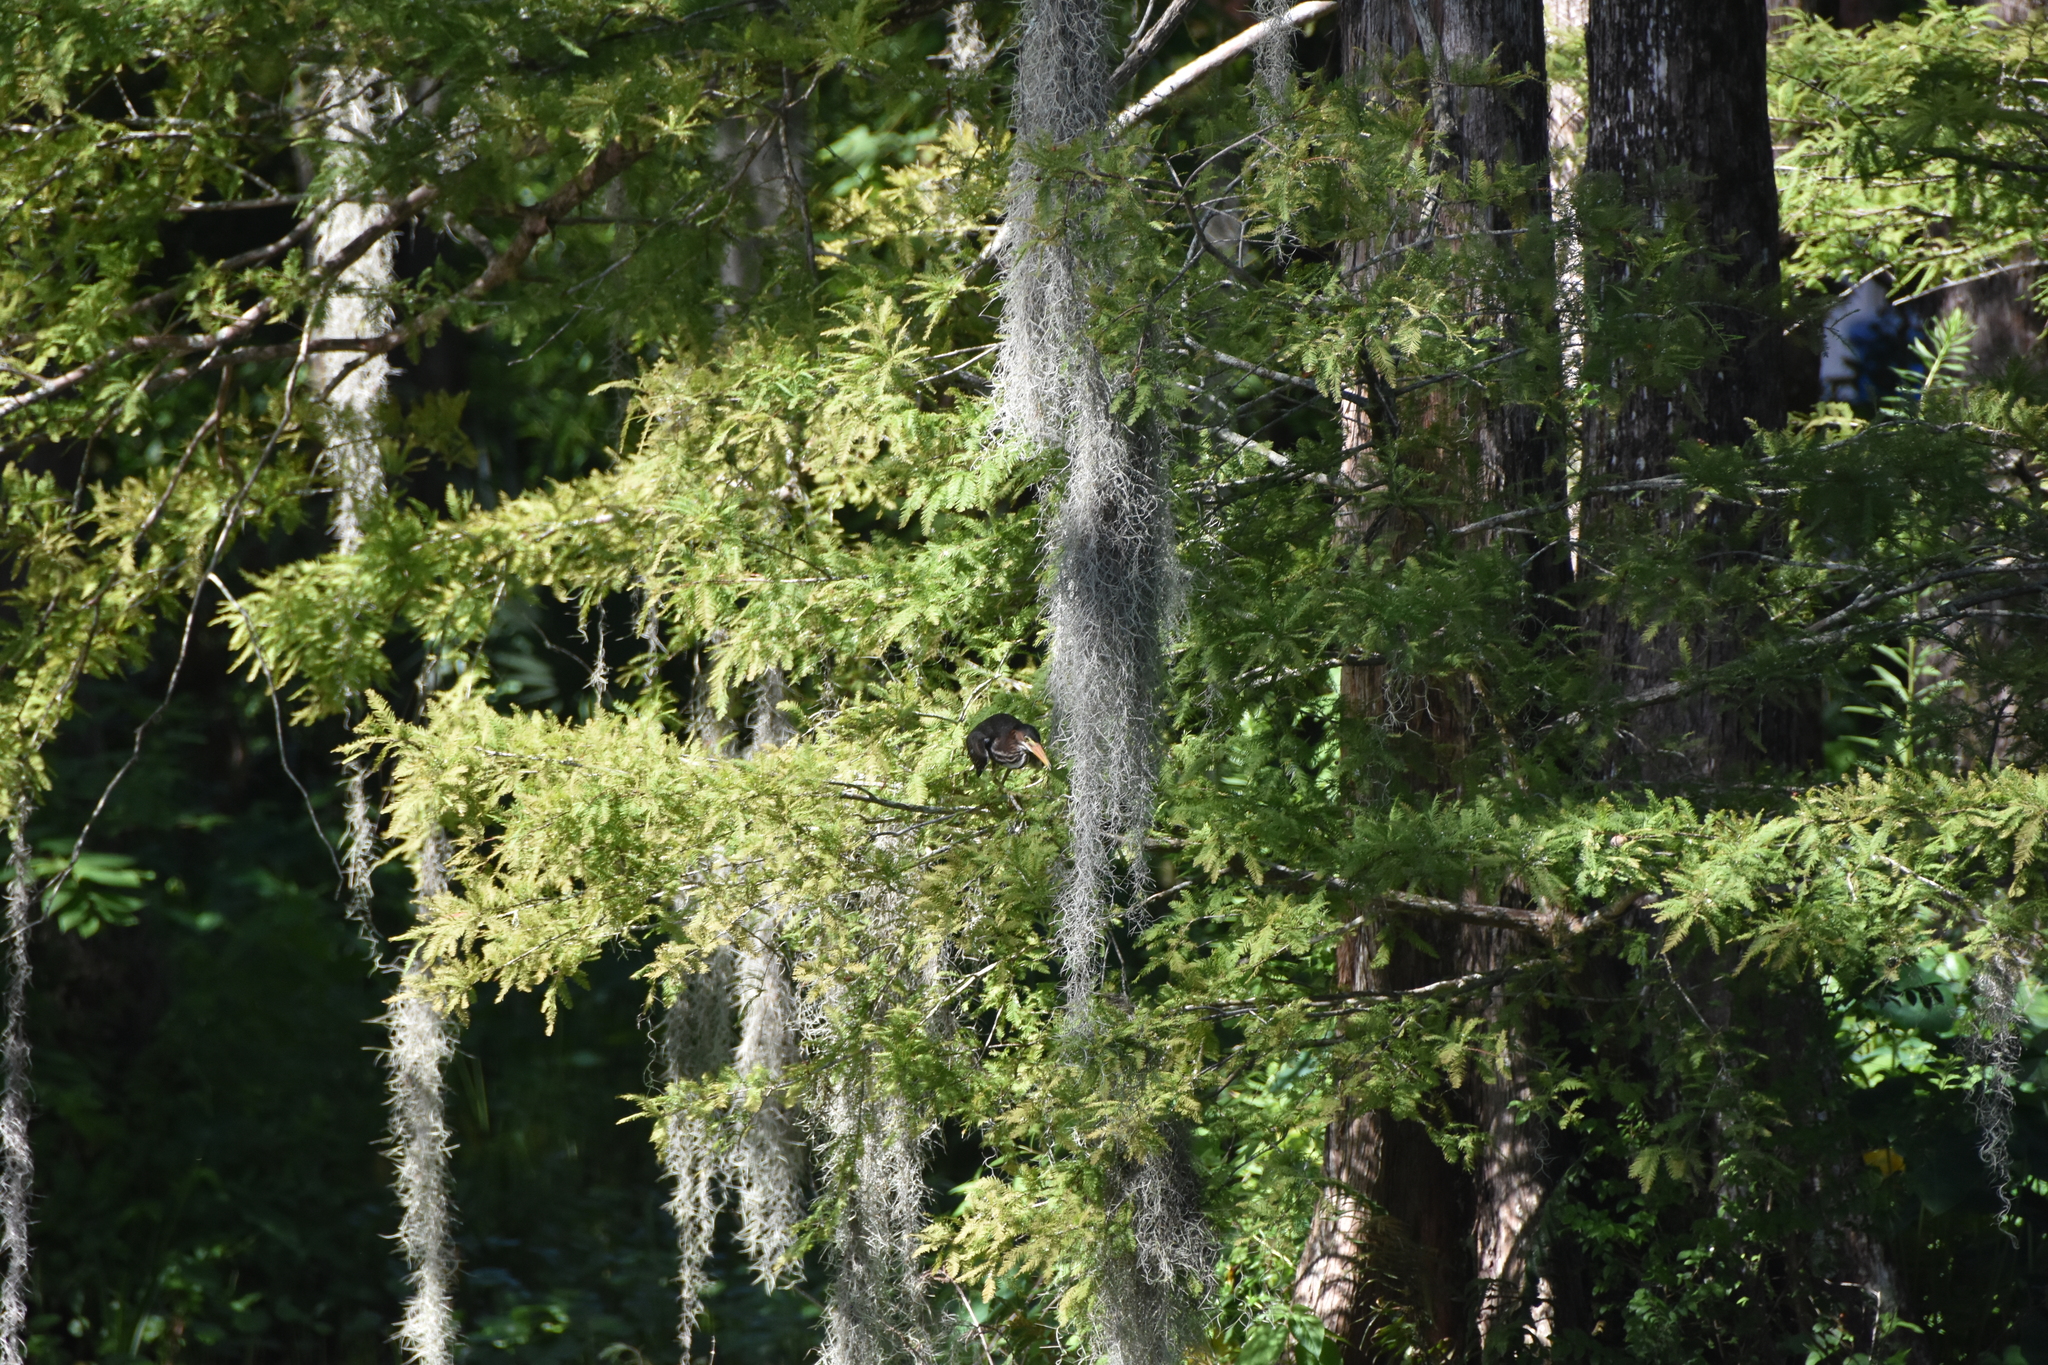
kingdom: Animalia
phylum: Chordata
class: Aves
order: Pelecaniformes
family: Ardeidae
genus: Butorides
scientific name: Butorides virescens
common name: Green heron
